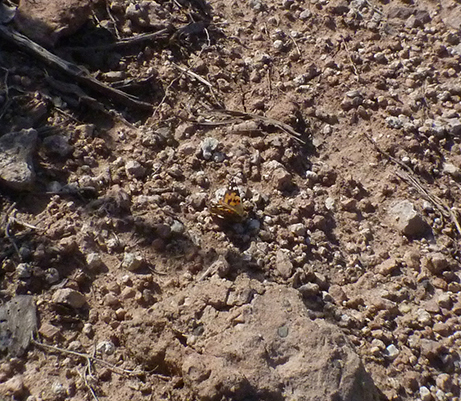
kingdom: Animalia
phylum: Arthropoda
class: Insecta
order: Lepidoptera
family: Nymphalidae
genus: Vanessa
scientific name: Vanessa cardui
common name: Painted lady
